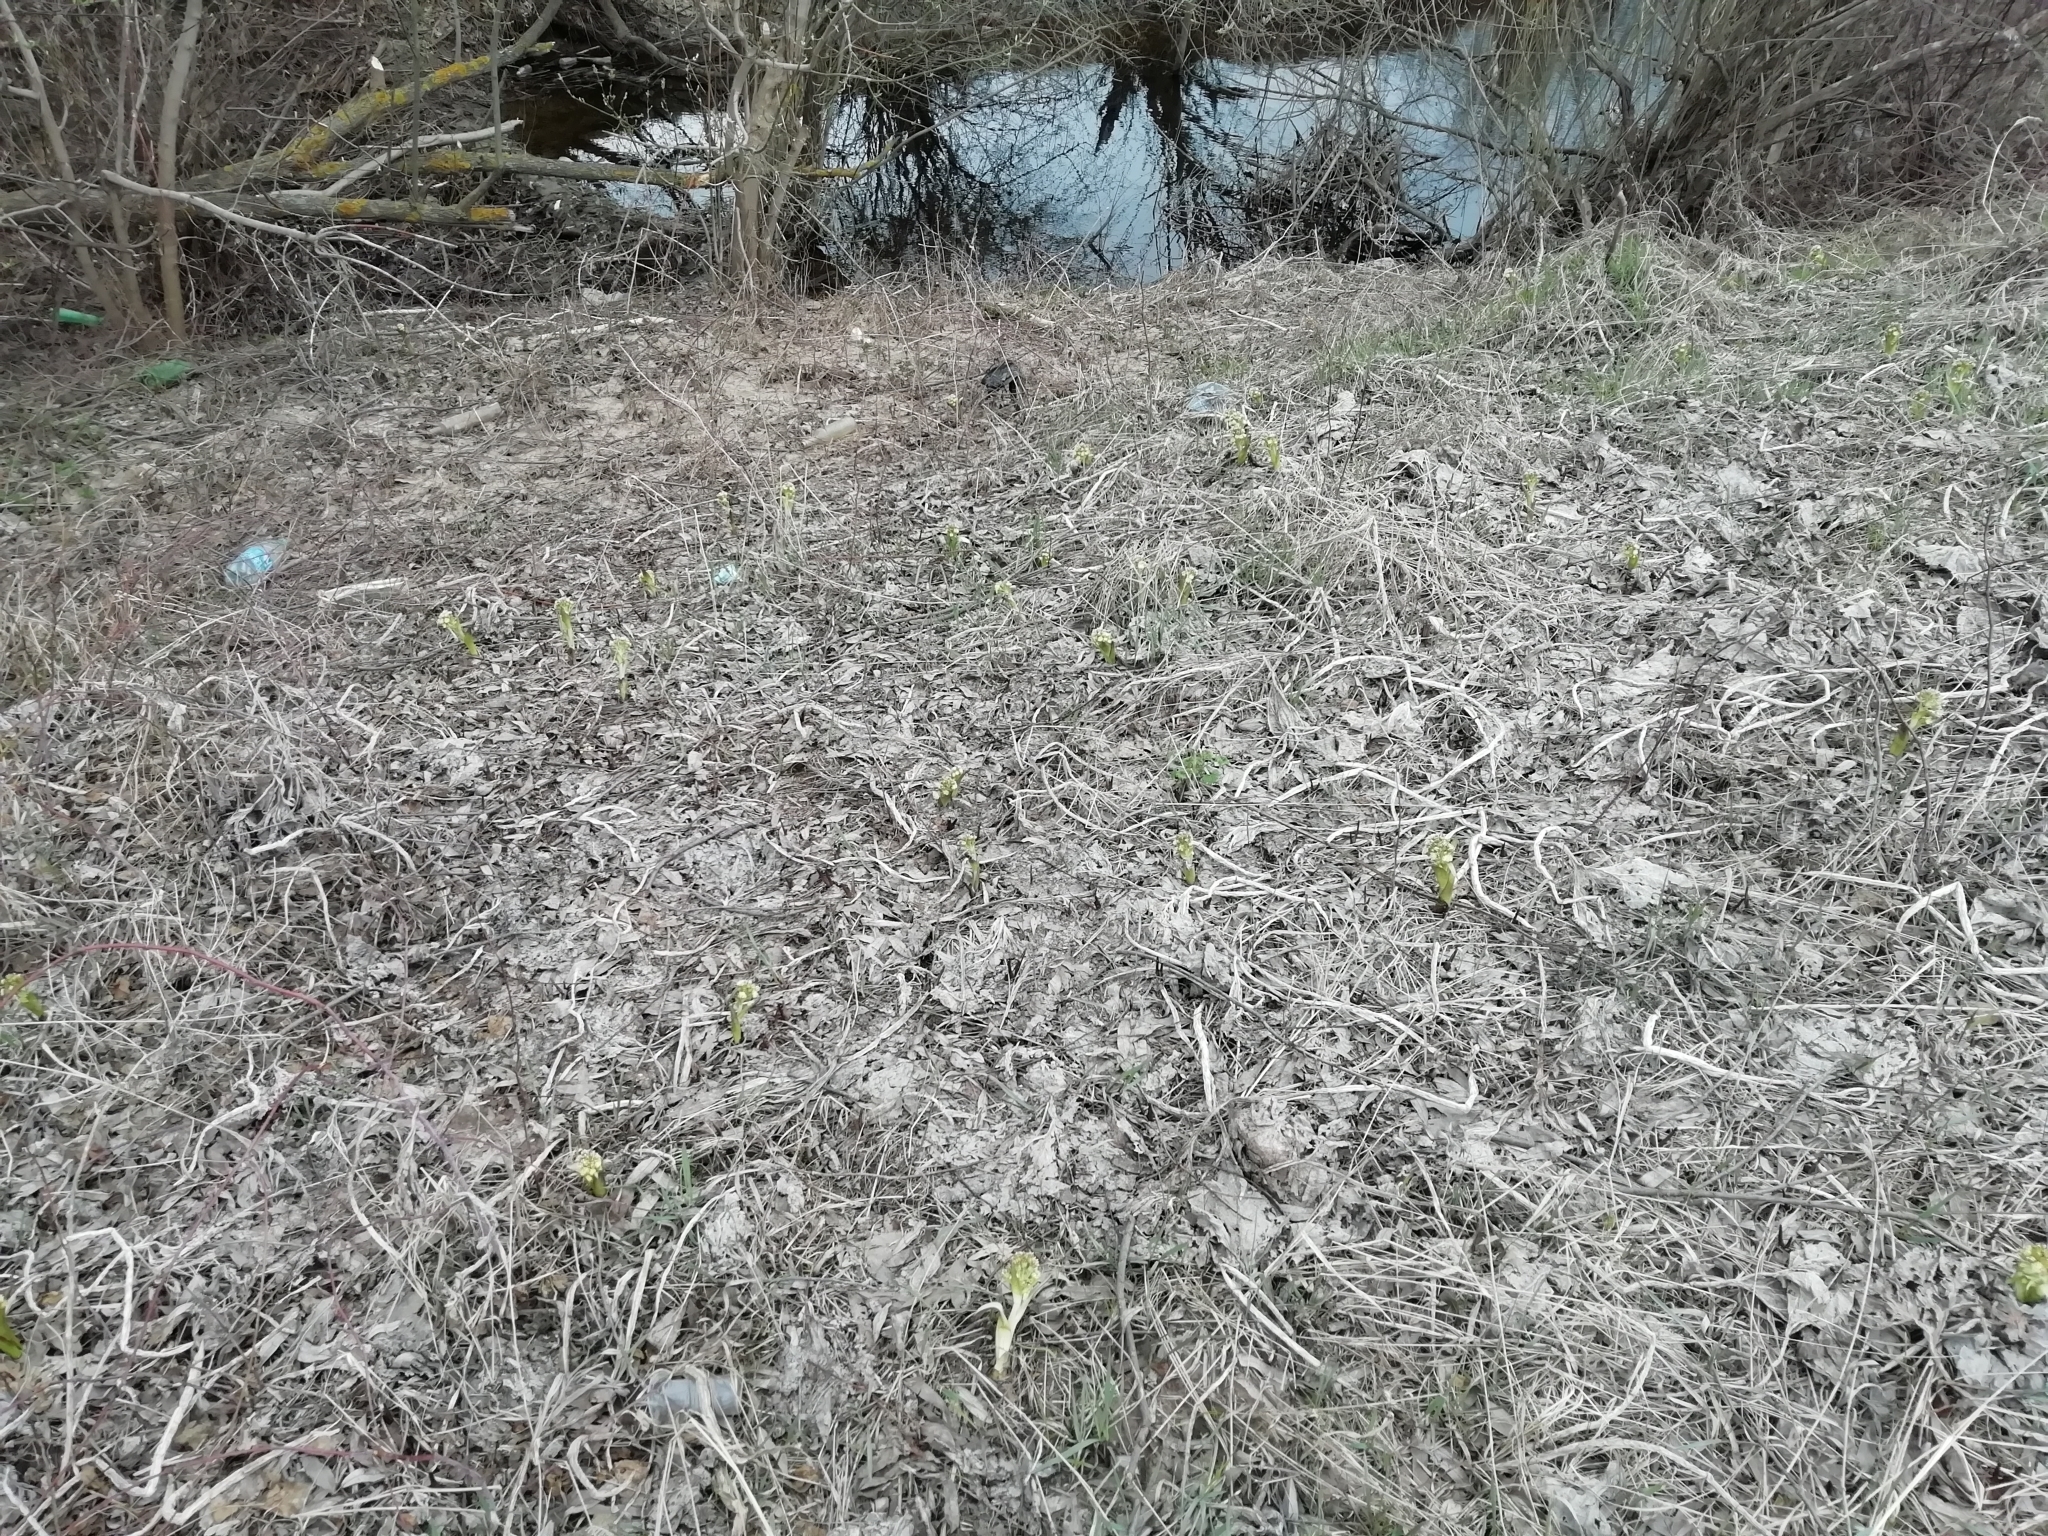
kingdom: Plantae
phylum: Tracheophyta
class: Magnoliopsida
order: Asterales
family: Asteraceae
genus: Petasites
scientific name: Petasites spurius
